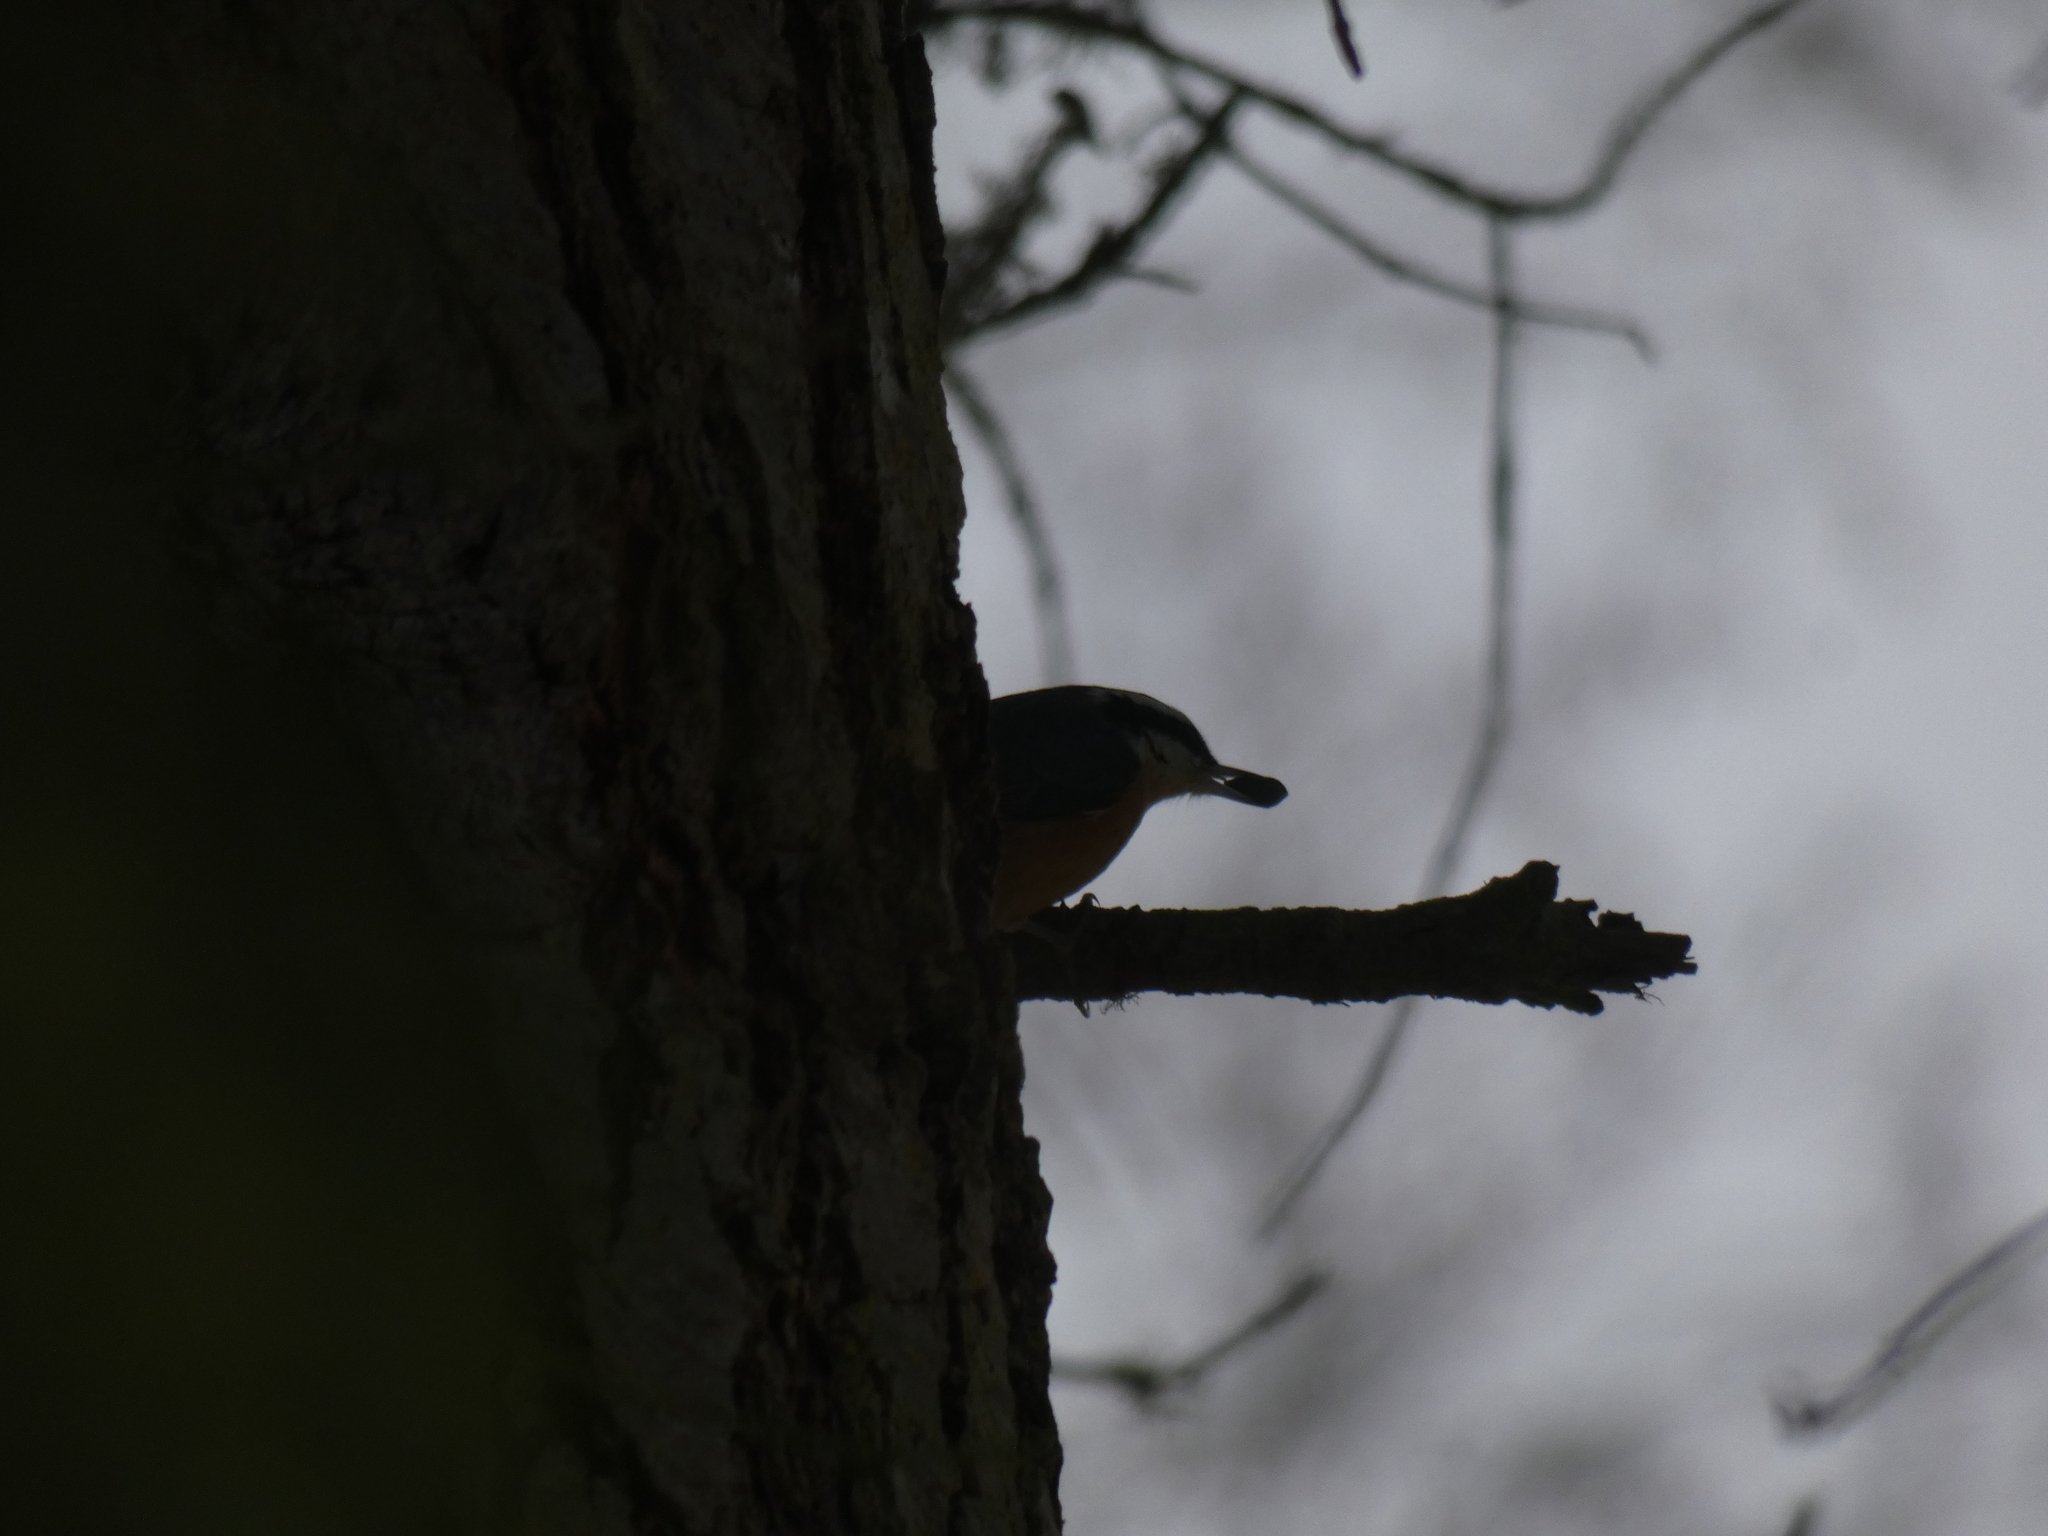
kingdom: Animalia
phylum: Chordata
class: Aves
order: Passeriformes
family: Sittidae
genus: Sitta
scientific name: Sitta canadensis
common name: Red-breasted nuthatch
